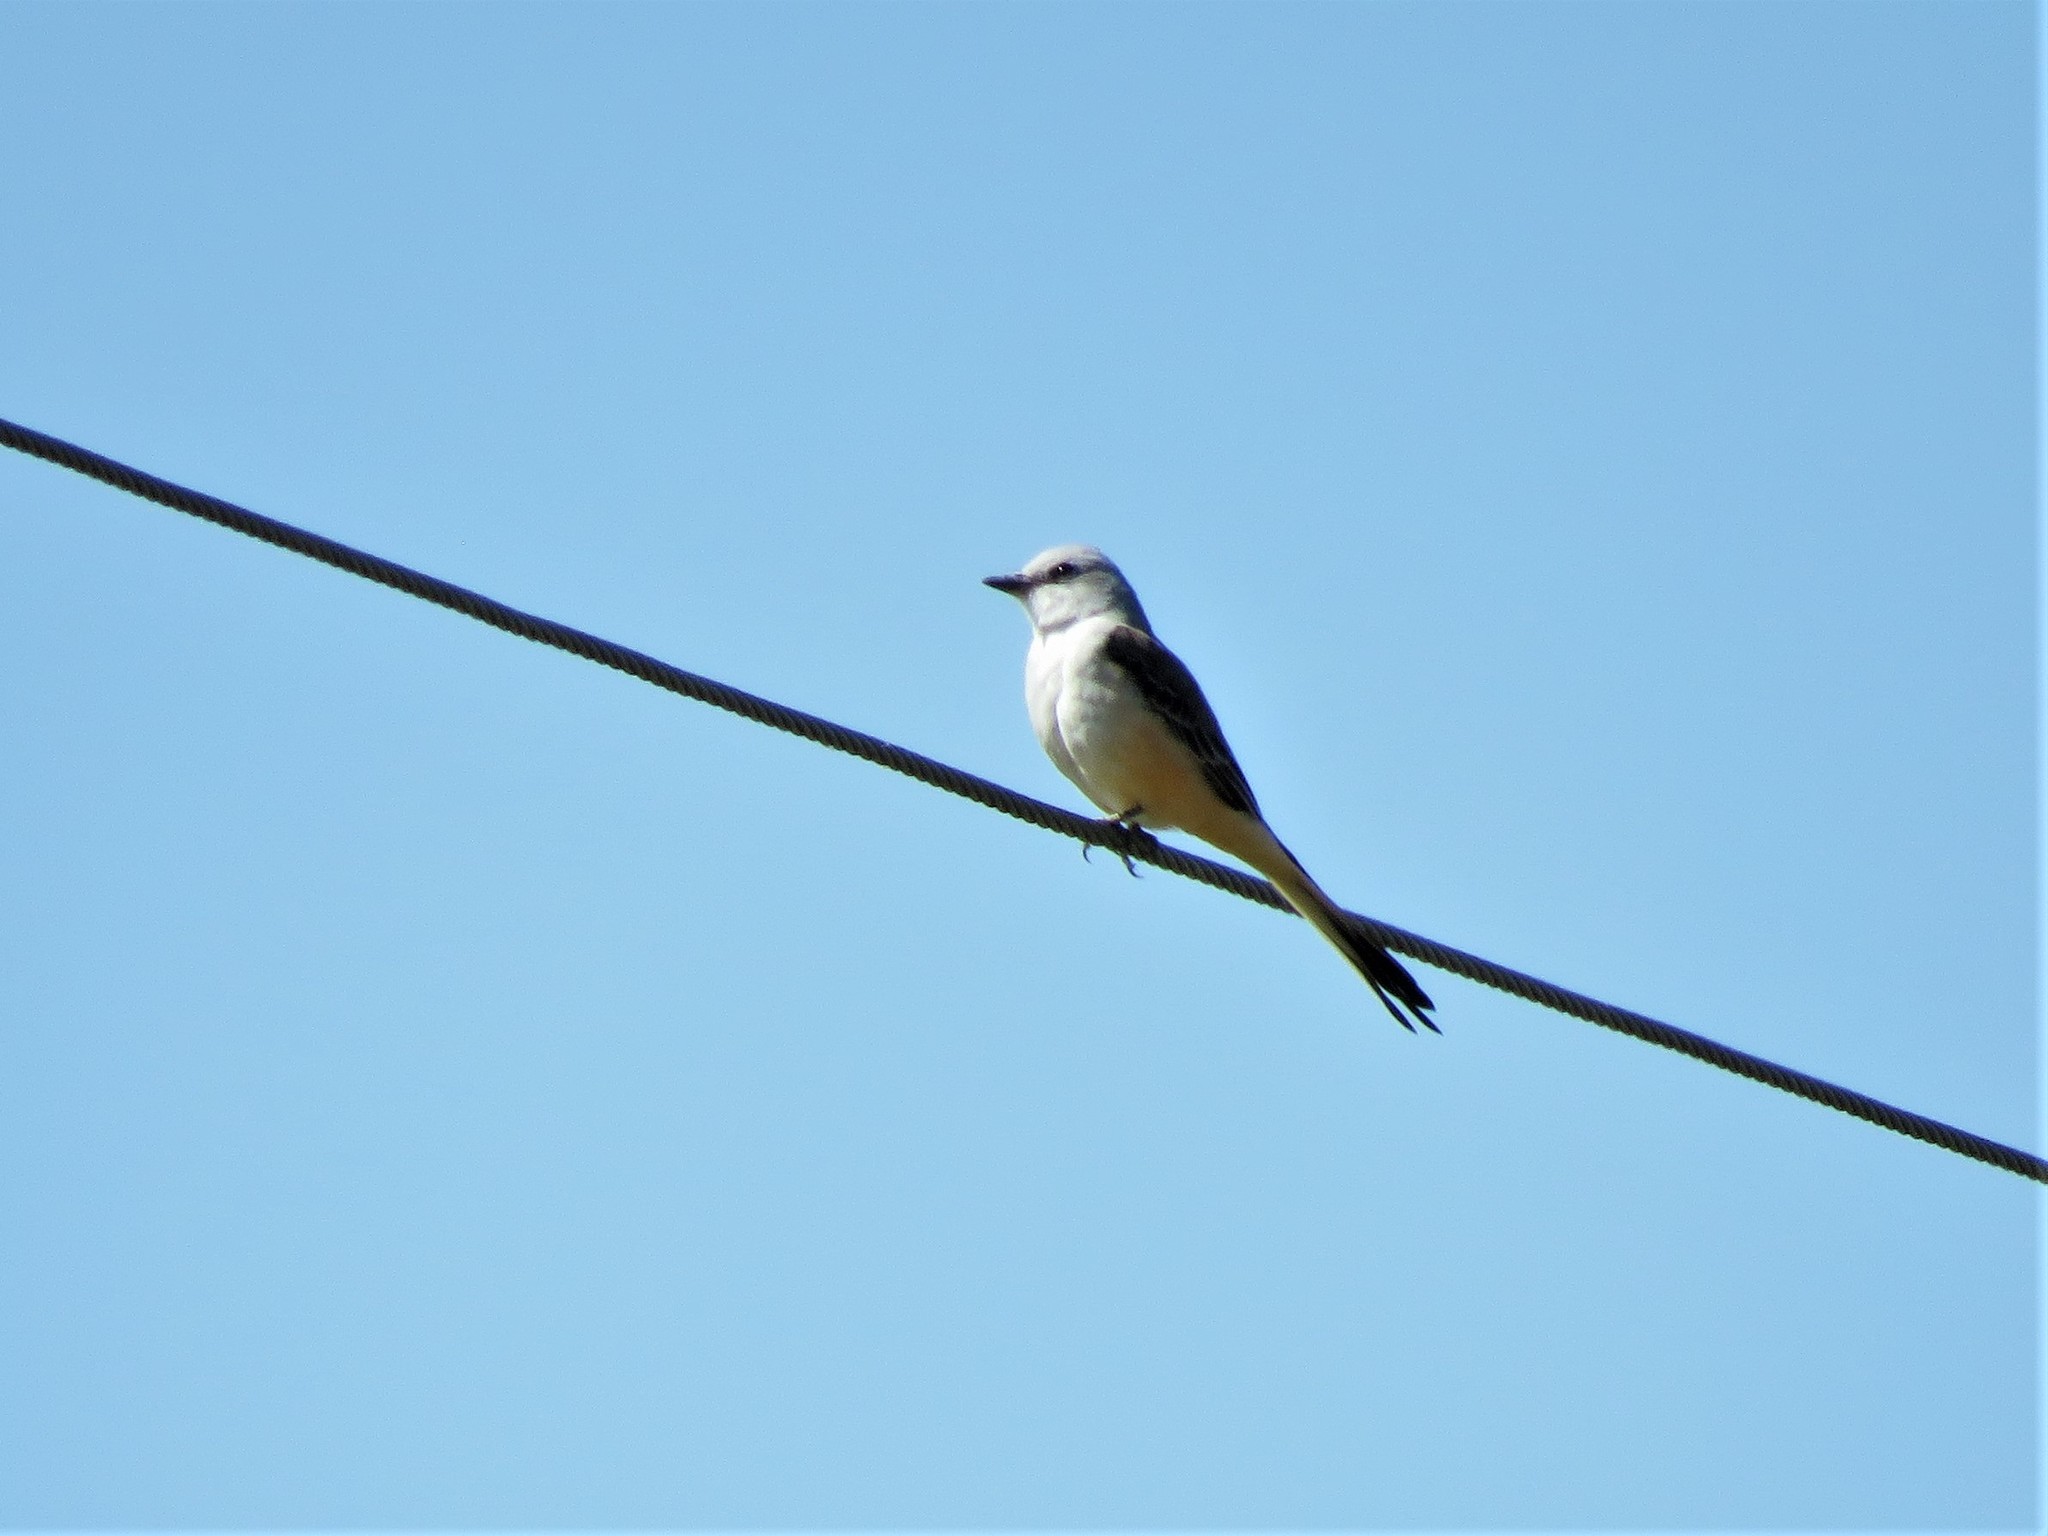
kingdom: Animalia
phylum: Chordata
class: Aves
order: Passeriformes
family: Tyrannidae
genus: Tyrannus
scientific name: Tyrannus forficatus
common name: Scissor-tailed flycatcher
